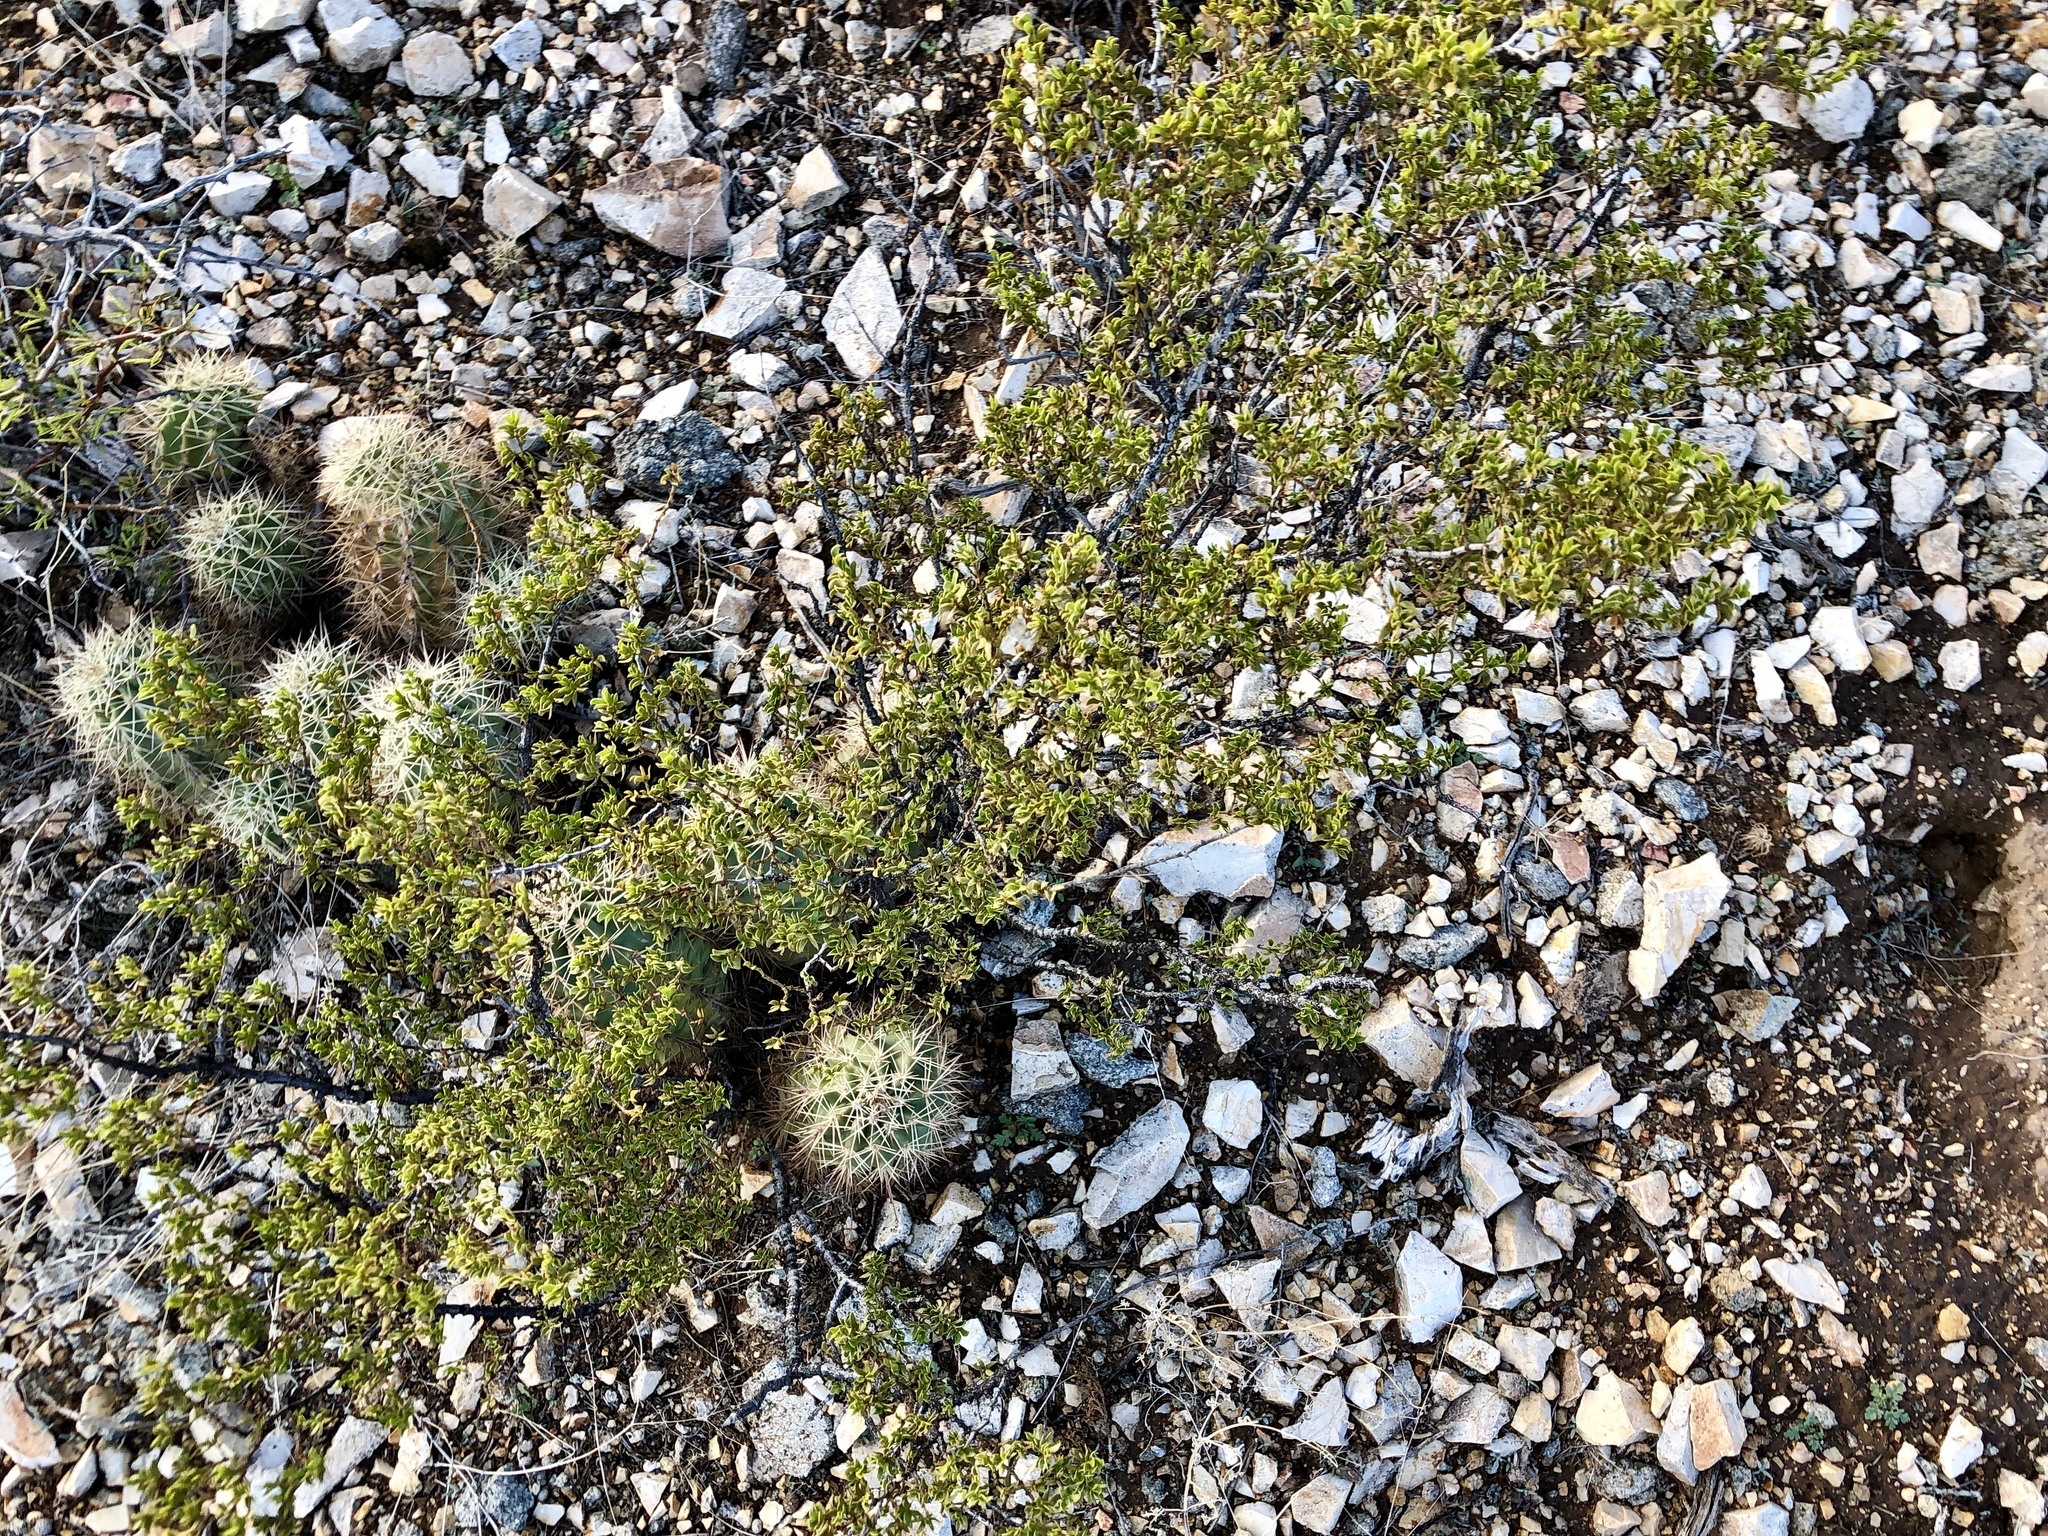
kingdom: Plantae
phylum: Tracheophyta
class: Magnoliopsida
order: Zygophyllales
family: Zygophyllaceae
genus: Larrea
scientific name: Larrea tridentata
